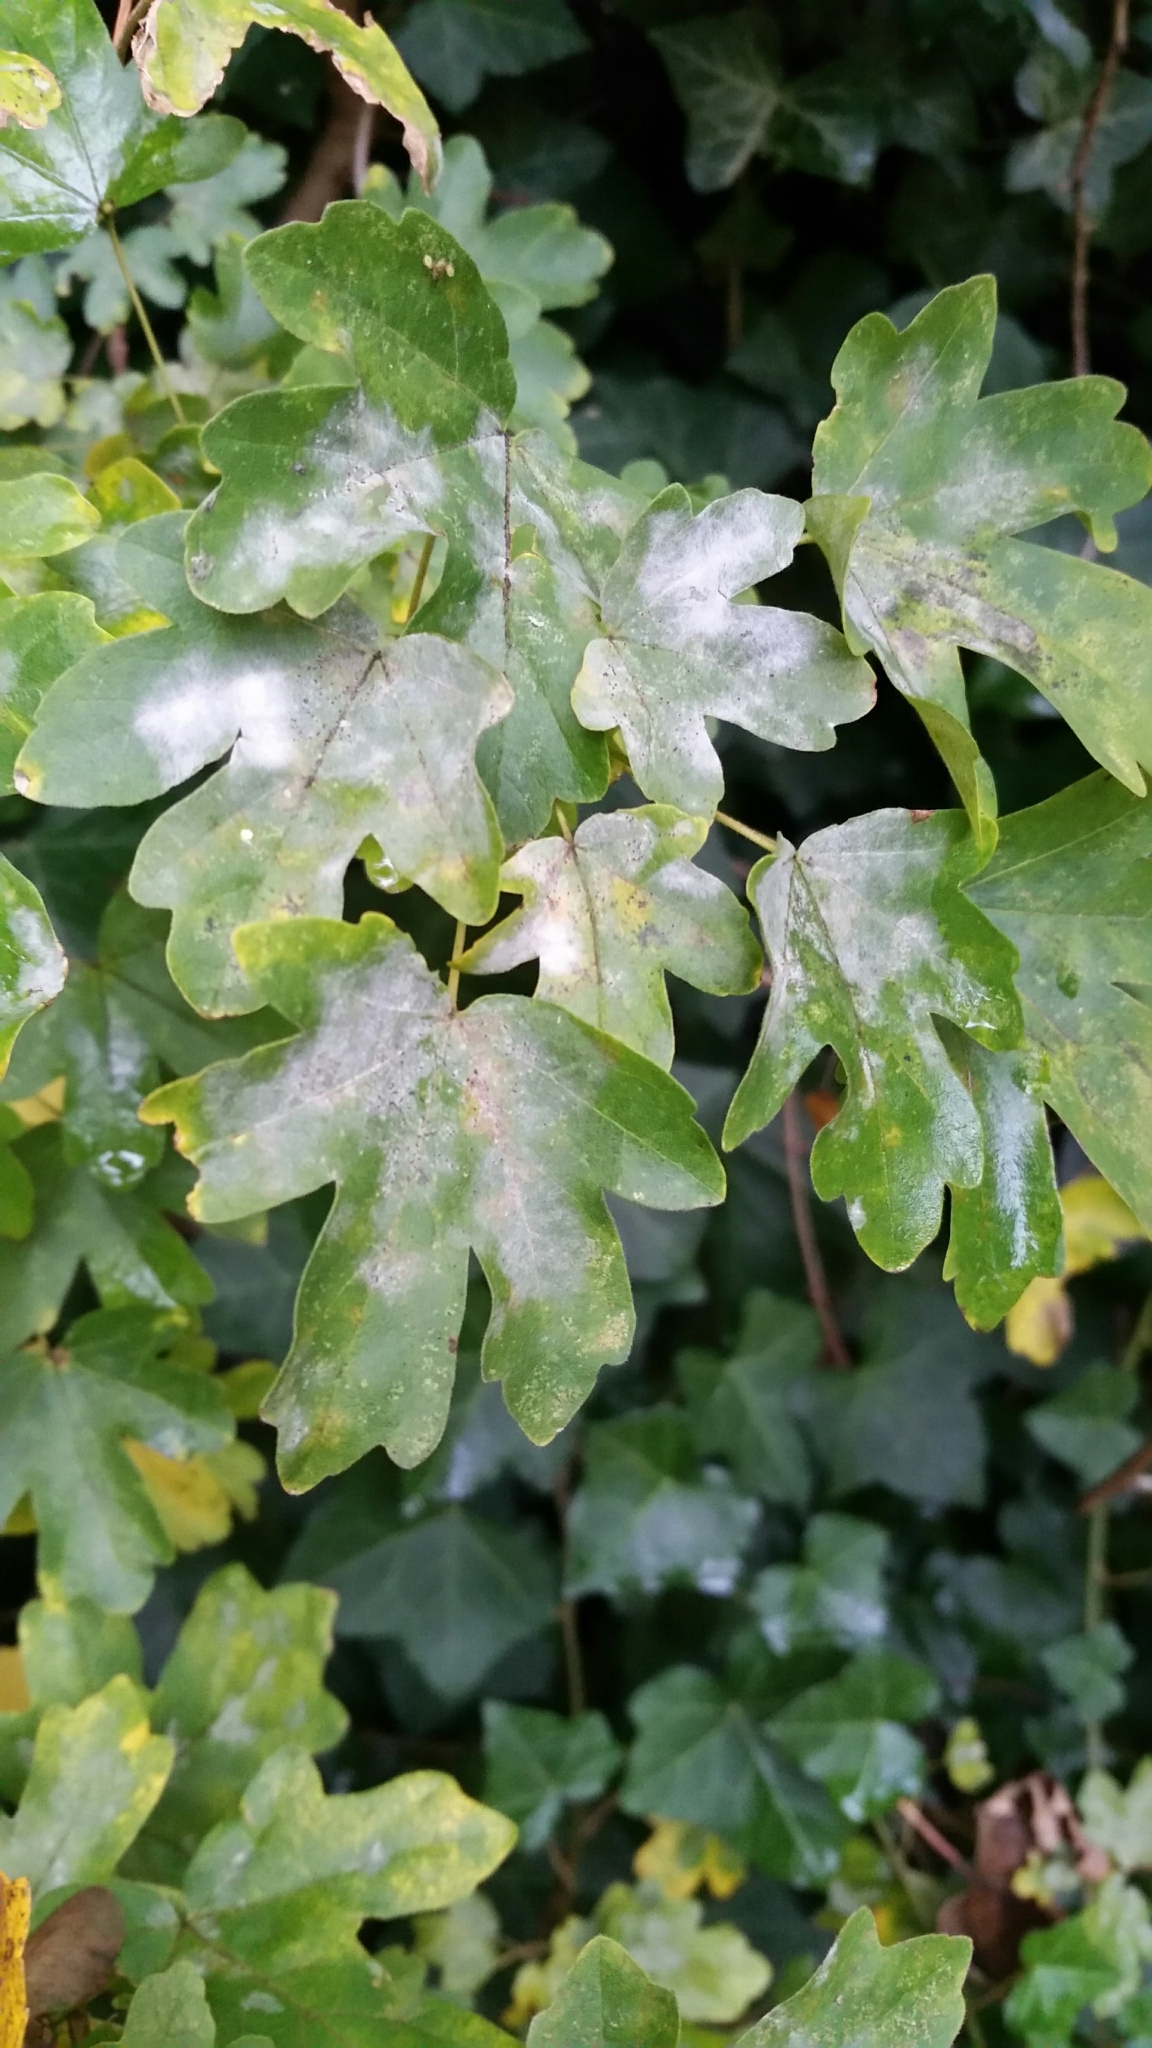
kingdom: Fungi
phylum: Ascomycota
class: Leotiomycetes
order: Helotiales
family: Erysiphaceae
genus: Sawadaea
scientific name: Sawadaea bicornis
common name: Maple mildew
